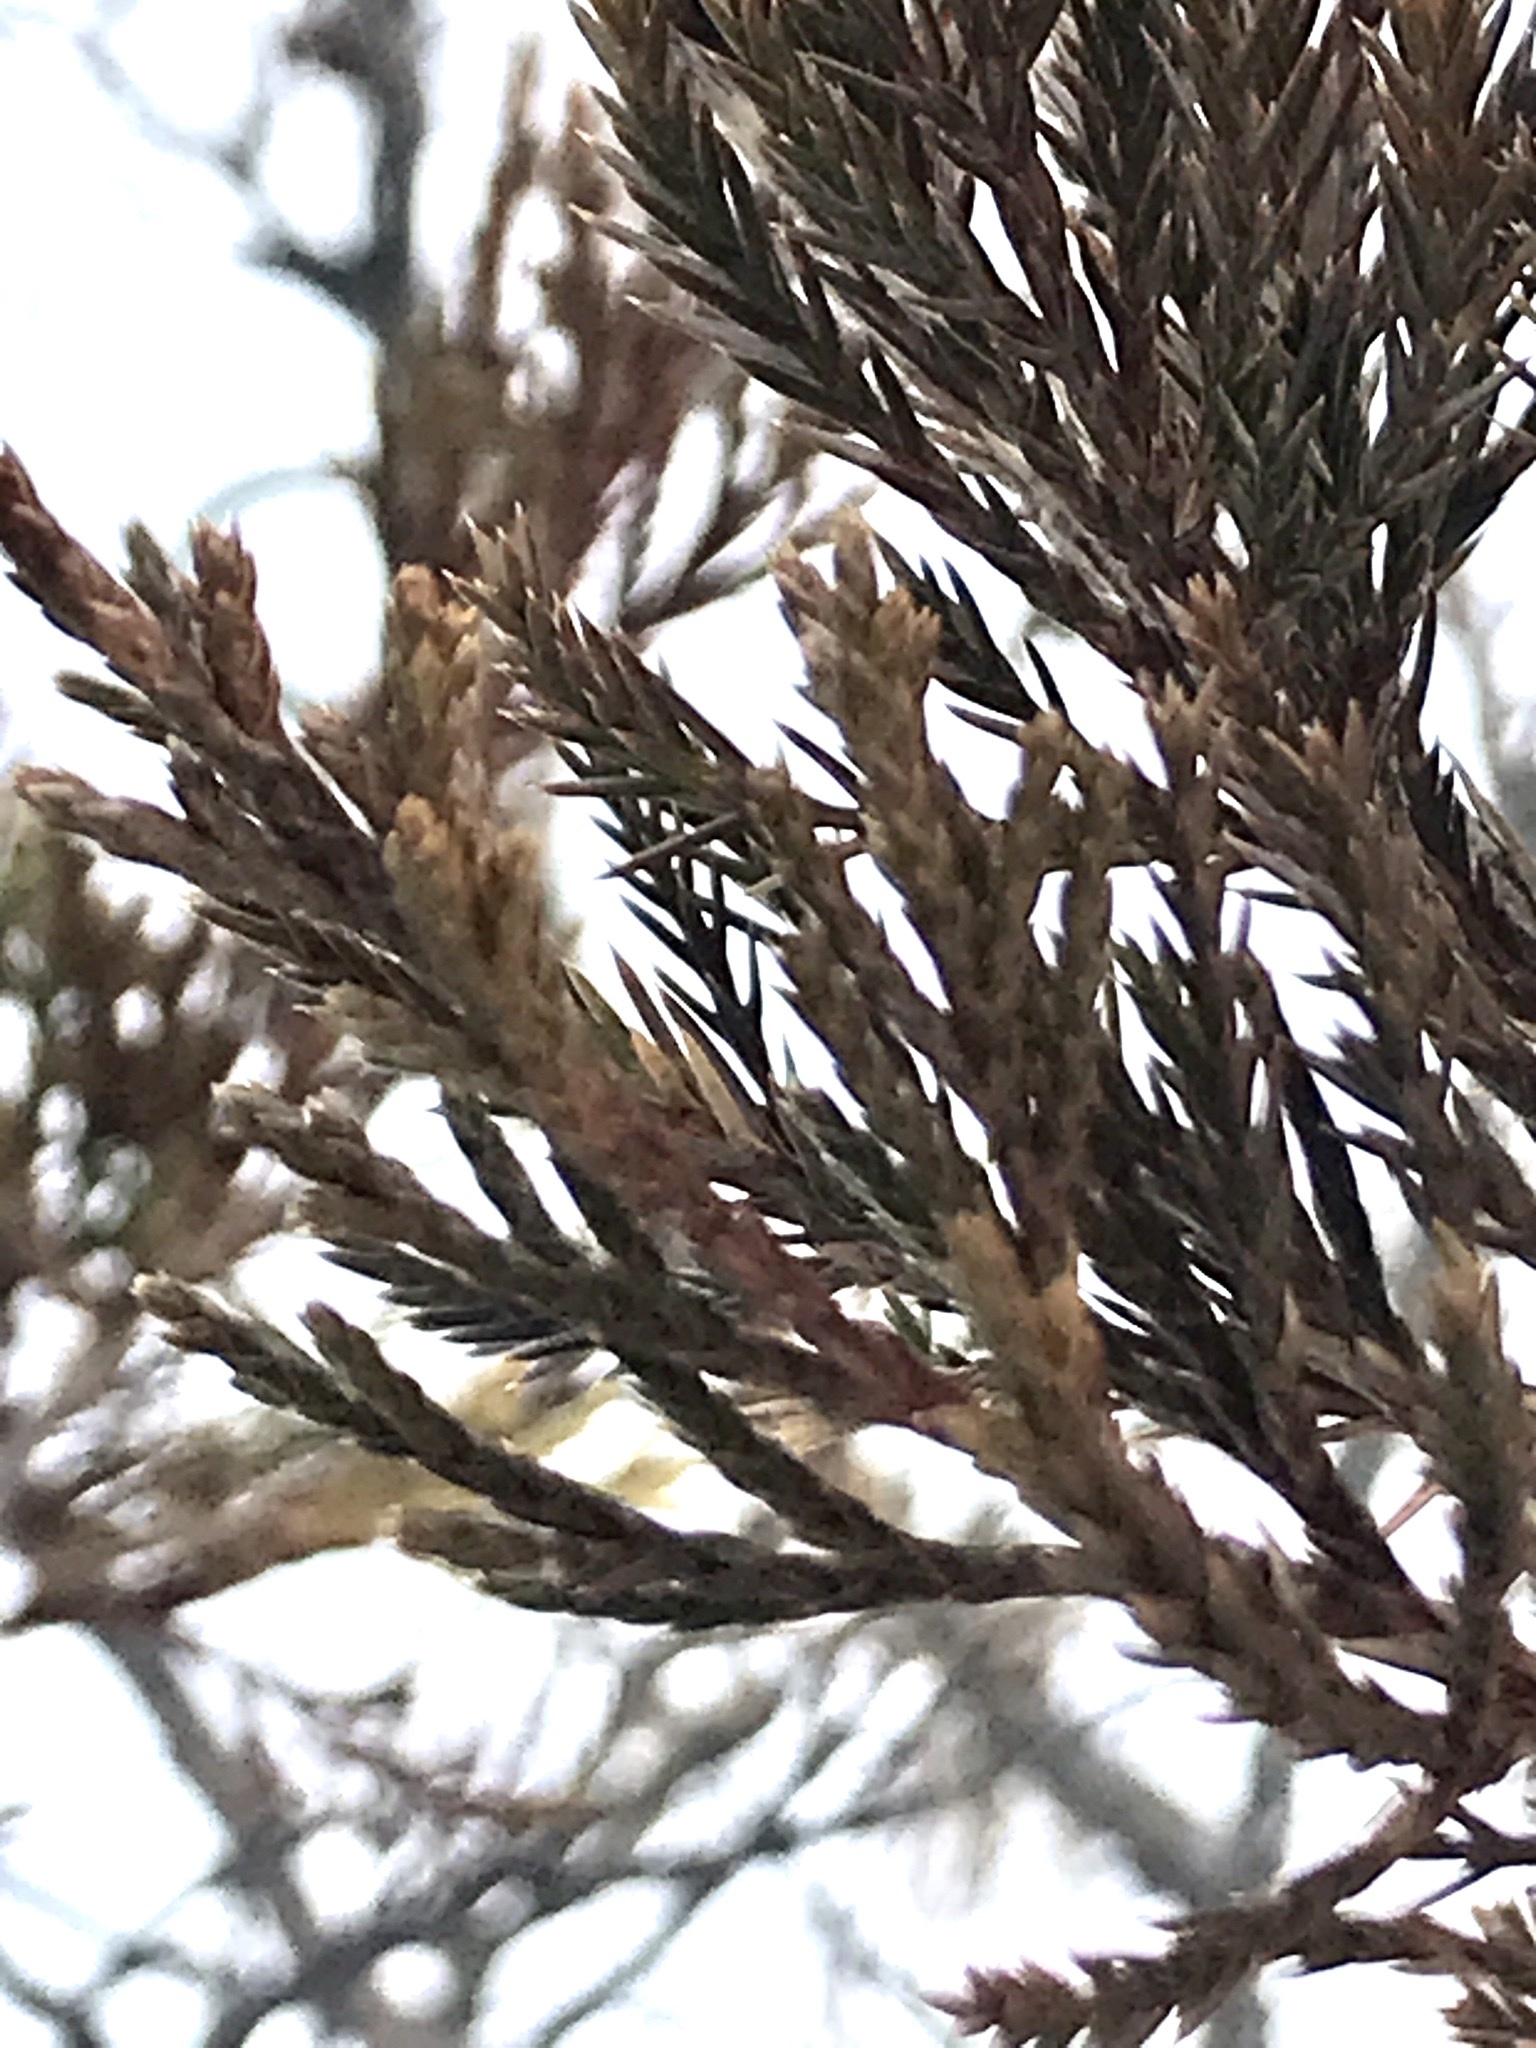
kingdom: Plantae
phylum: Tracheophyta
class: Pinopsida
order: Pinales
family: Cupressaceae
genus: Juniperus
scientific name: Juniperus virginiana
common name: Red juniper
